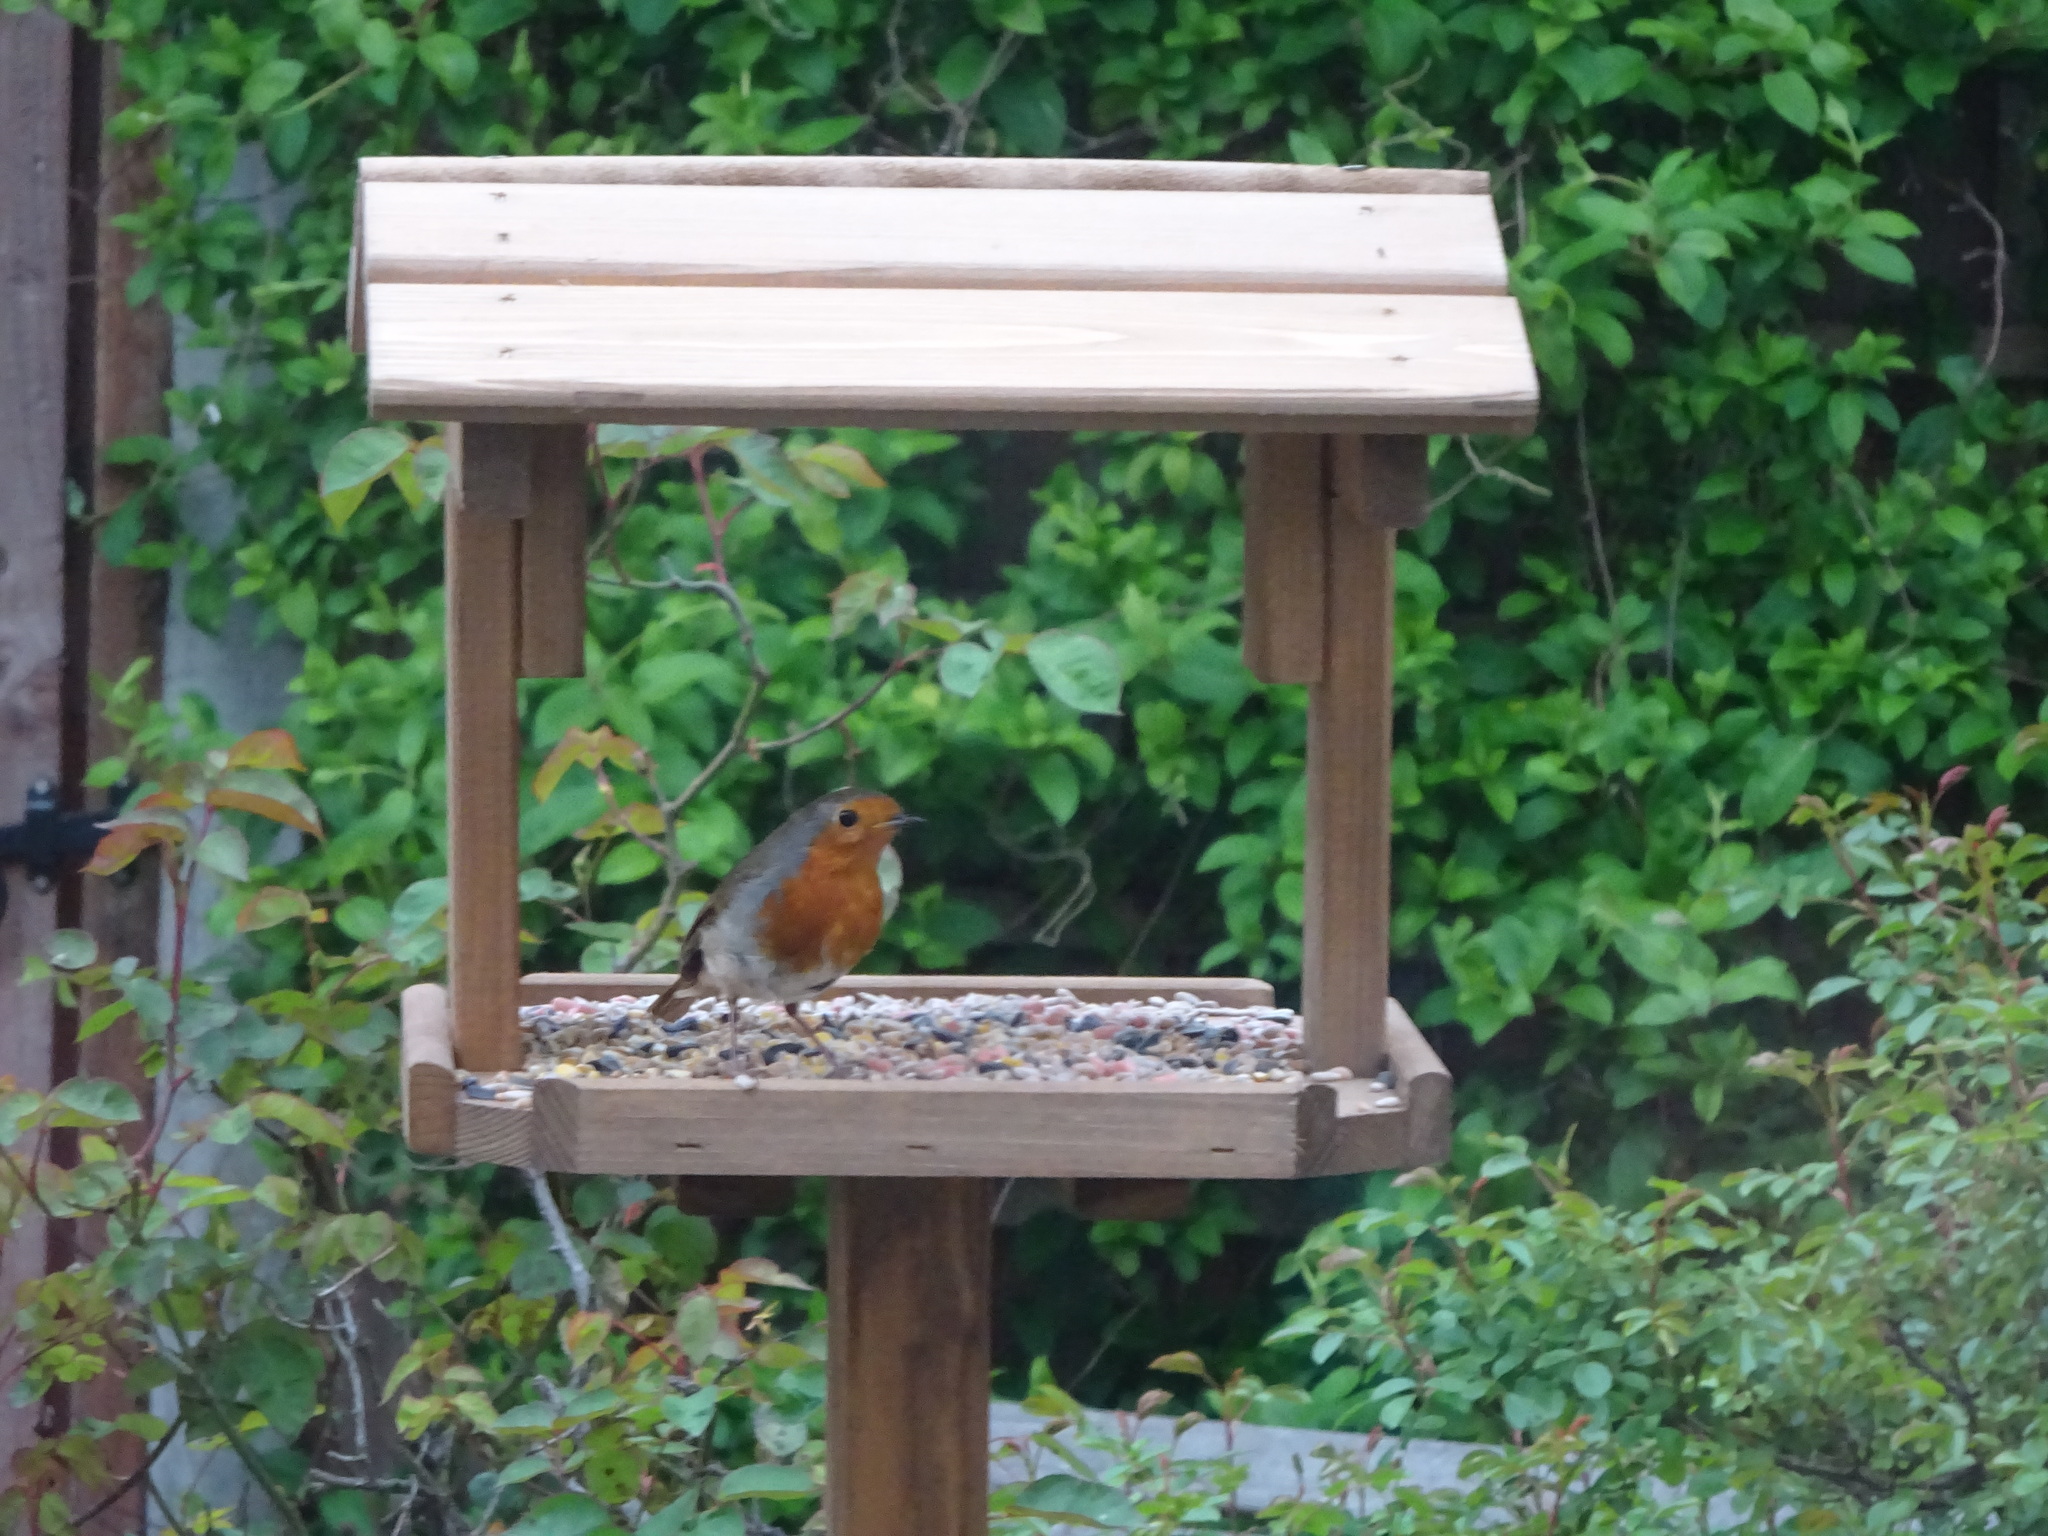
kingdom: Animalia
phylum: Chordata
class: Aves
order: Passeriformes
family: Muscicapidae
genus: Erithacus
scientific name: Erithacus rubecula
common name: European robin
